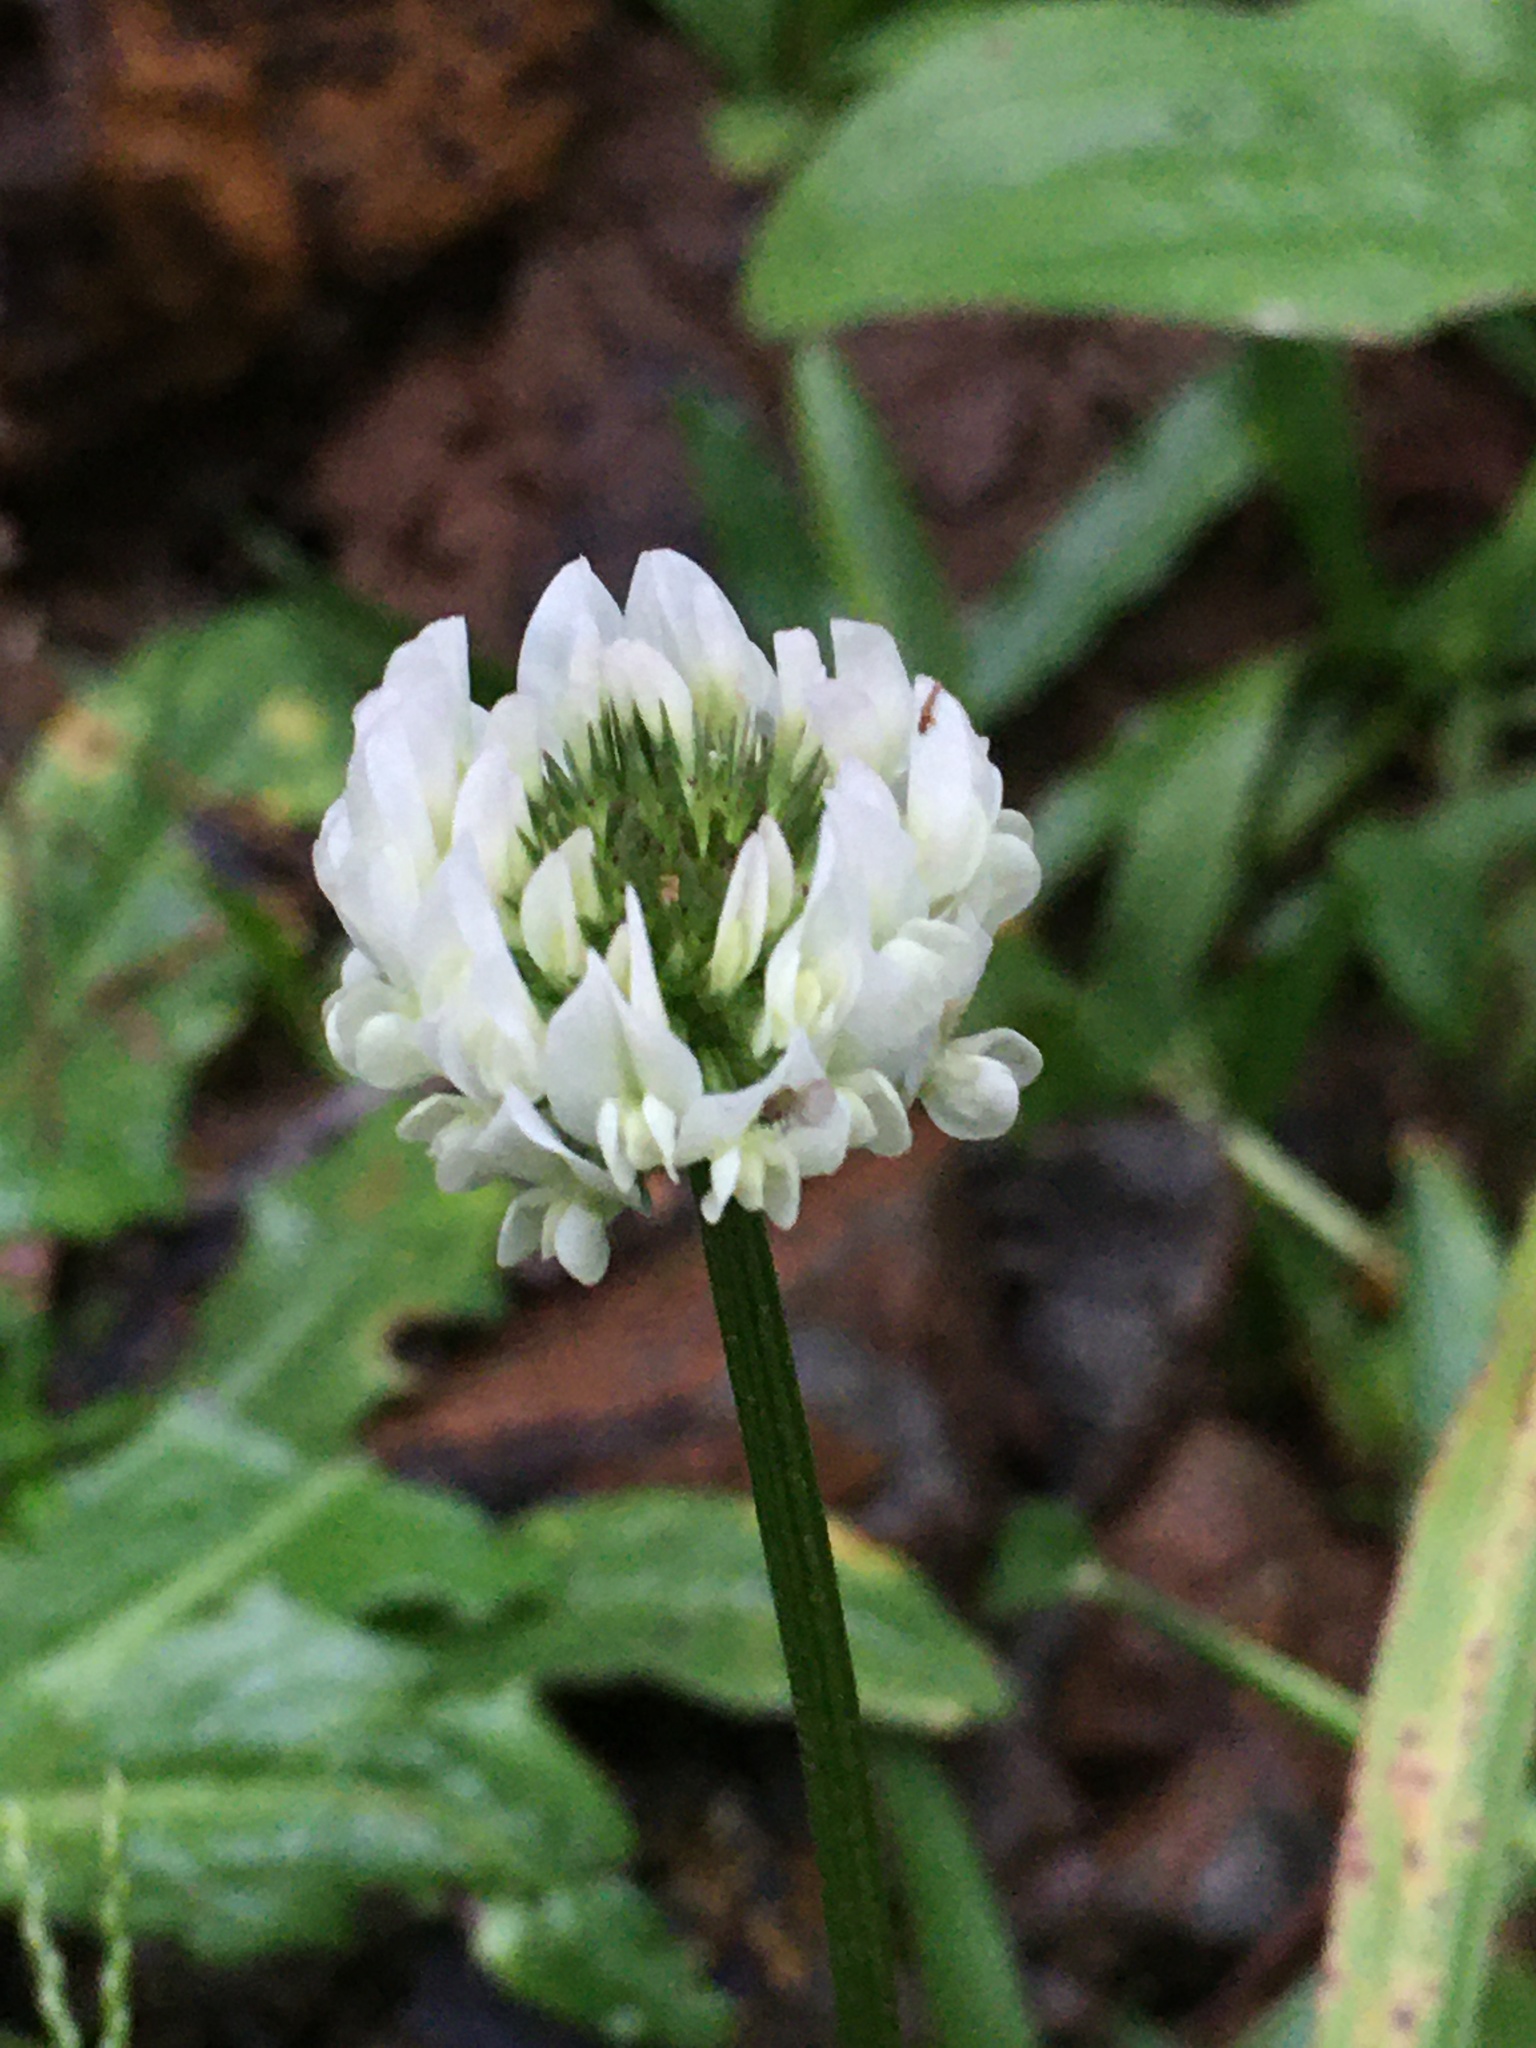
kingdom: Plantae
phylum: Tracheophyta
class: Magnoliopsida
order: Fabales
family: Fabaceae
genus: Trifolium
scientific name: Trifolium repens
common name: White clover
